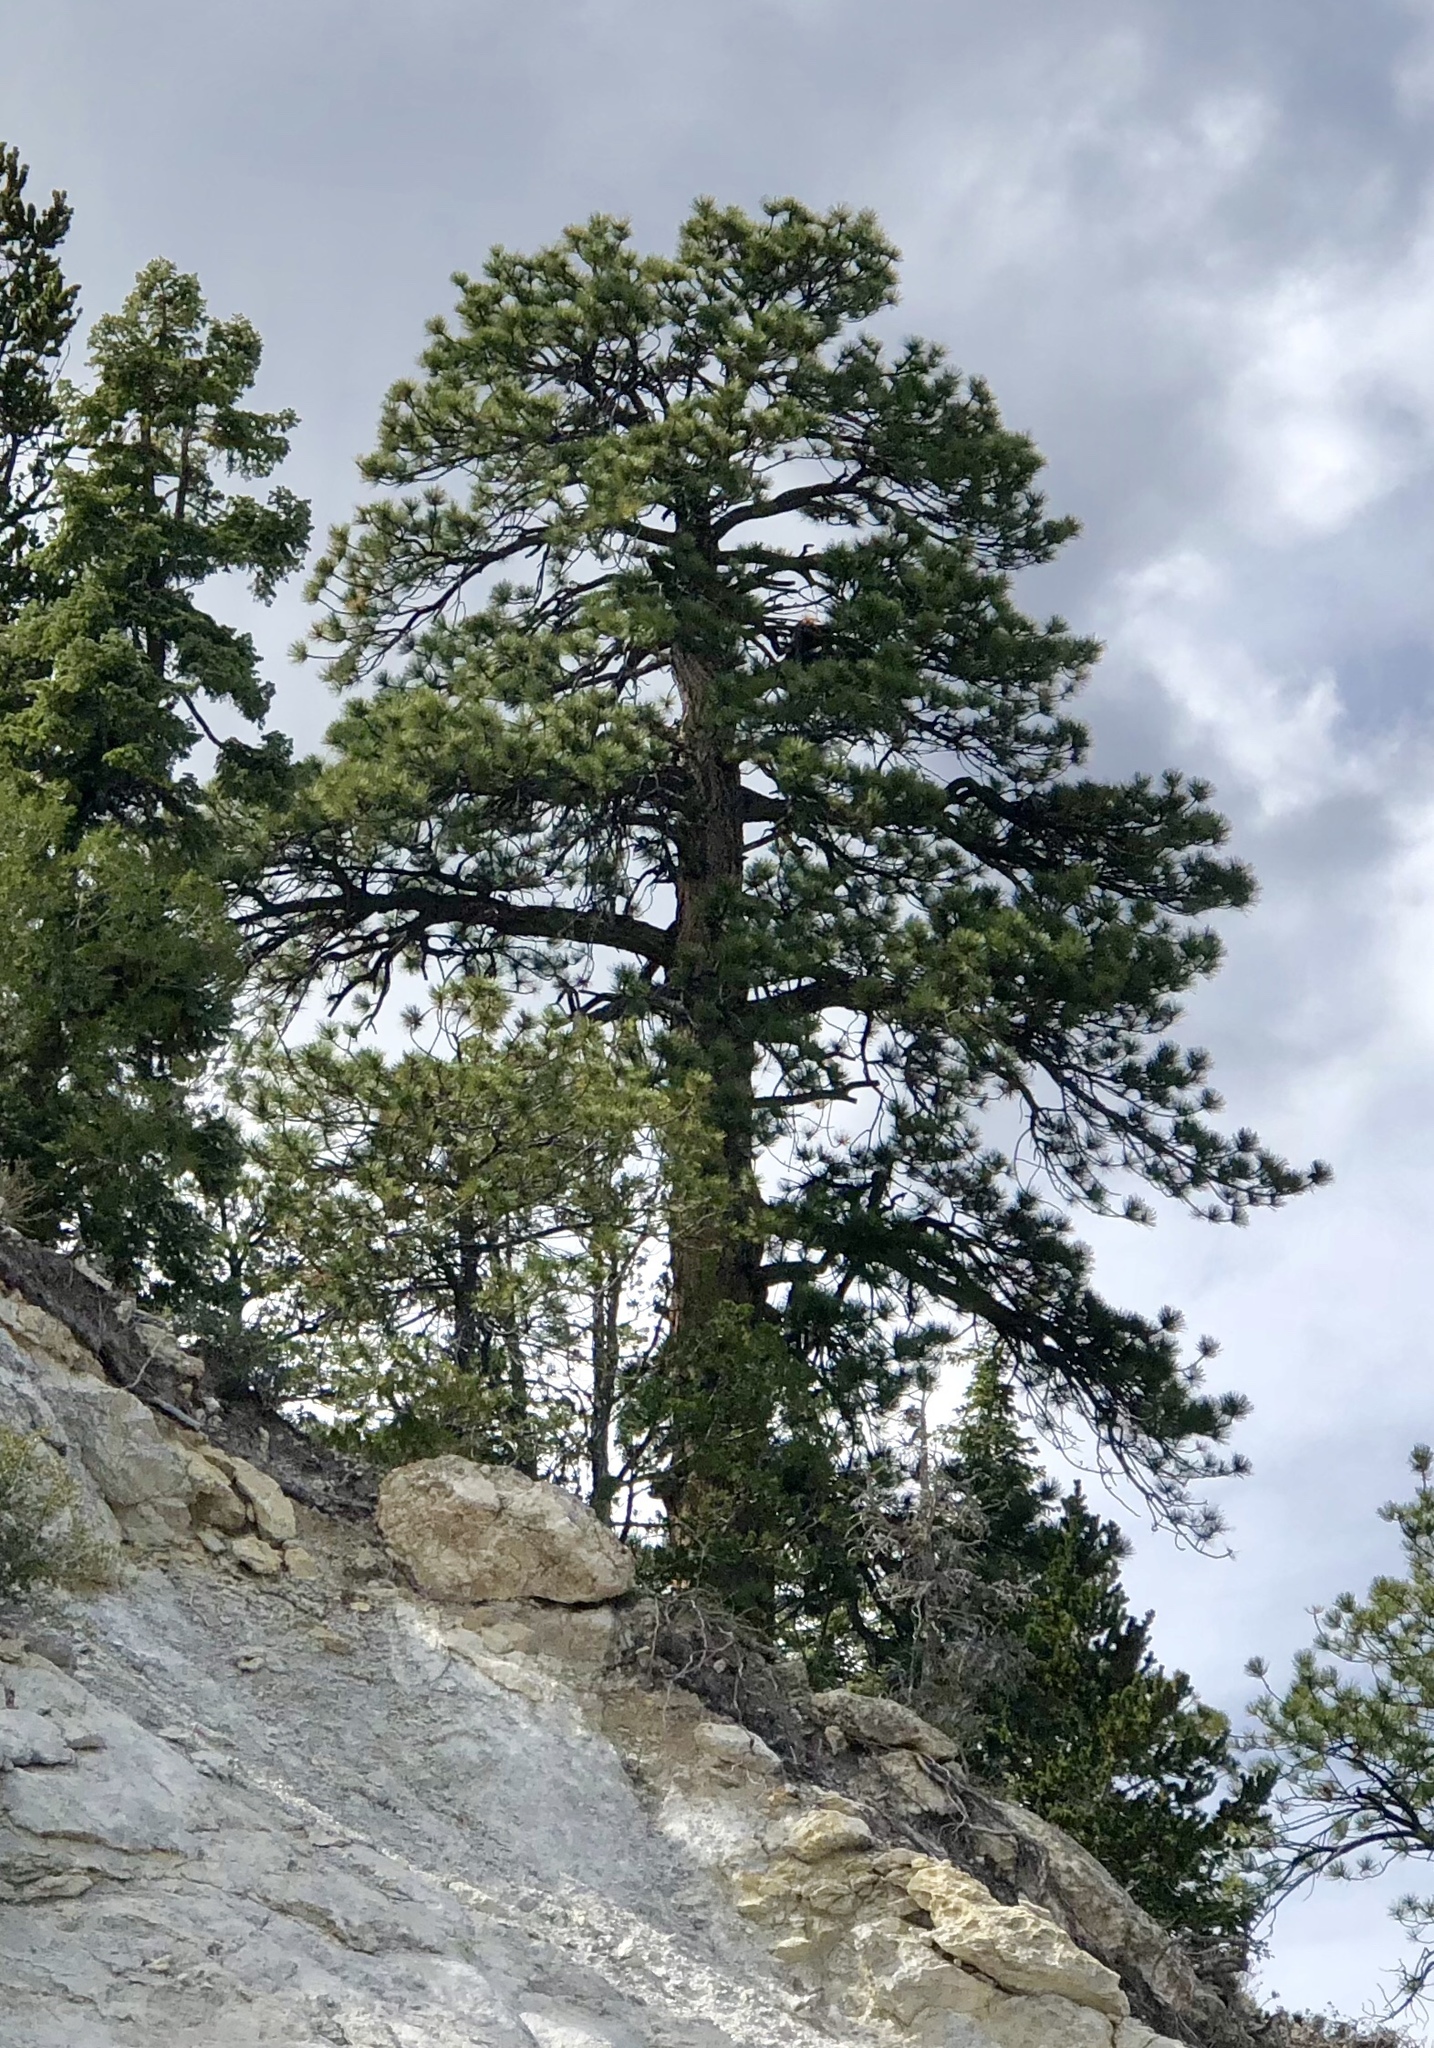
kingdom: Plantae
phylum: Tracheophyta
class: Pinopsida
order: Pinales
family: Pinaceae
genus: Pinus
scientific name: Pinus ponderosa
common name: Western yellow-pine
